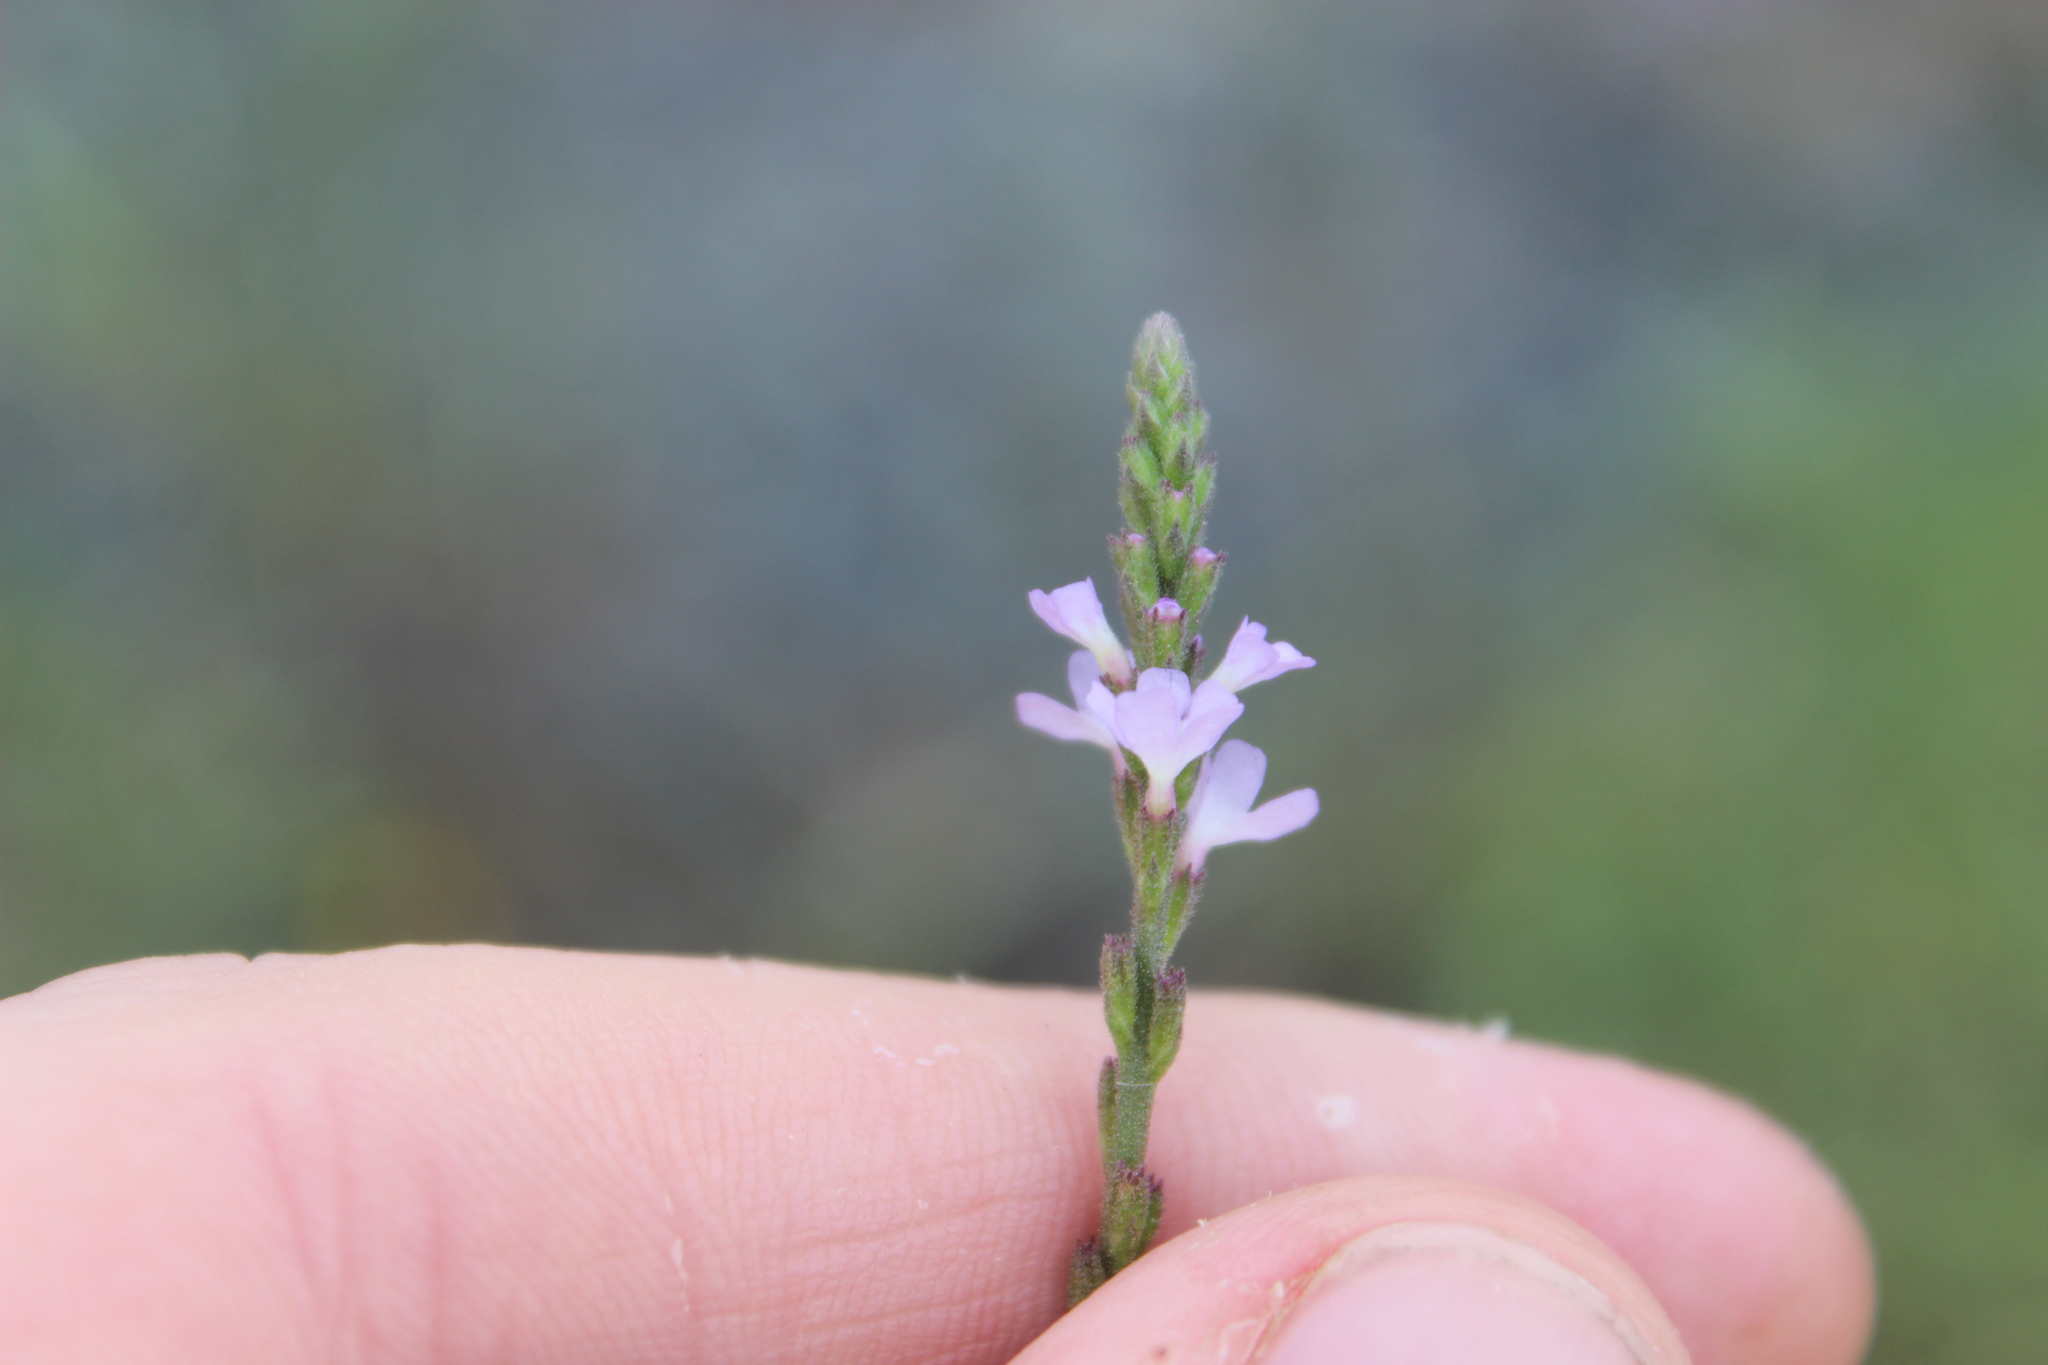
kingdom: Plantae
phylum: Tracheophyta
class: Magnoliopsida
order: Lamiales
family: Verbenaceae
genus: Verbena
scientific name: Verbena officinalis
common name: Vervain
